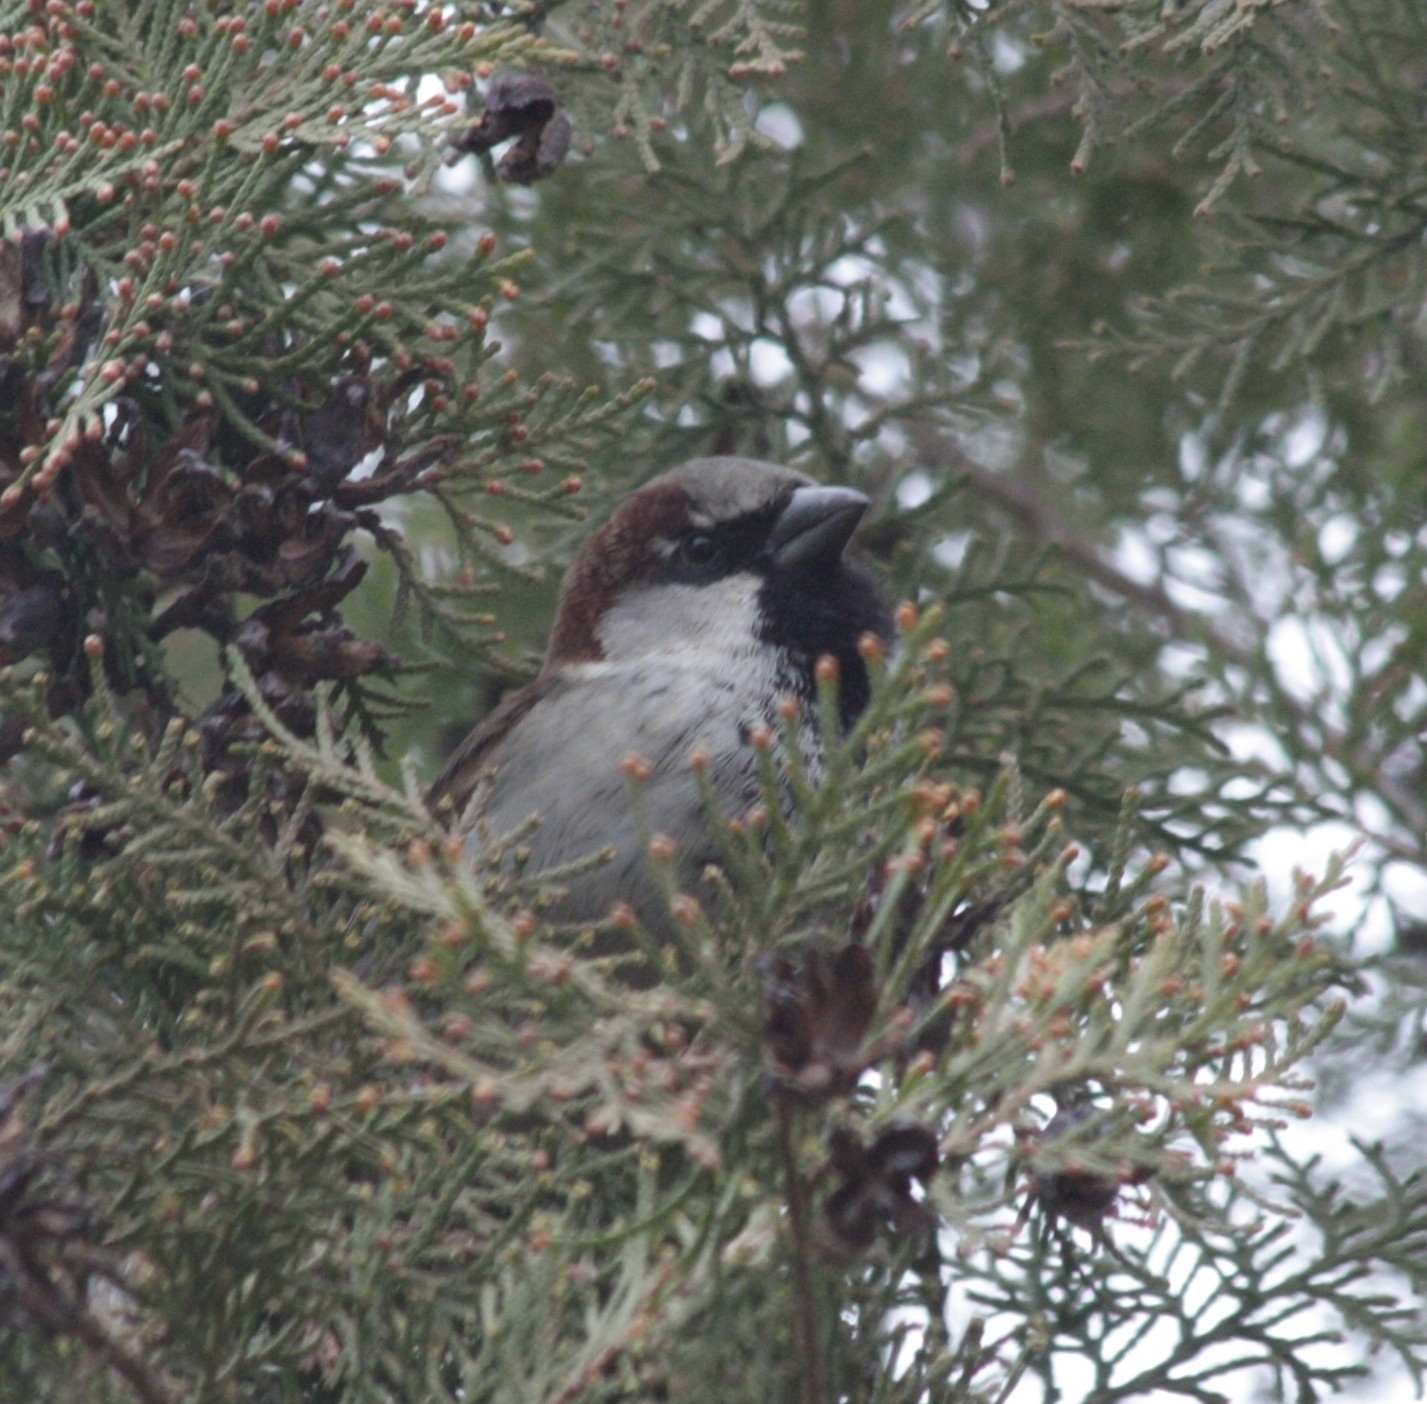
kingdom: Animalia
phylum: Chordata
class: Aves
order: Passeriformes
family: Passeridae
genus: Passer
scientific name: Passer domesticus
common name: House sparrow
